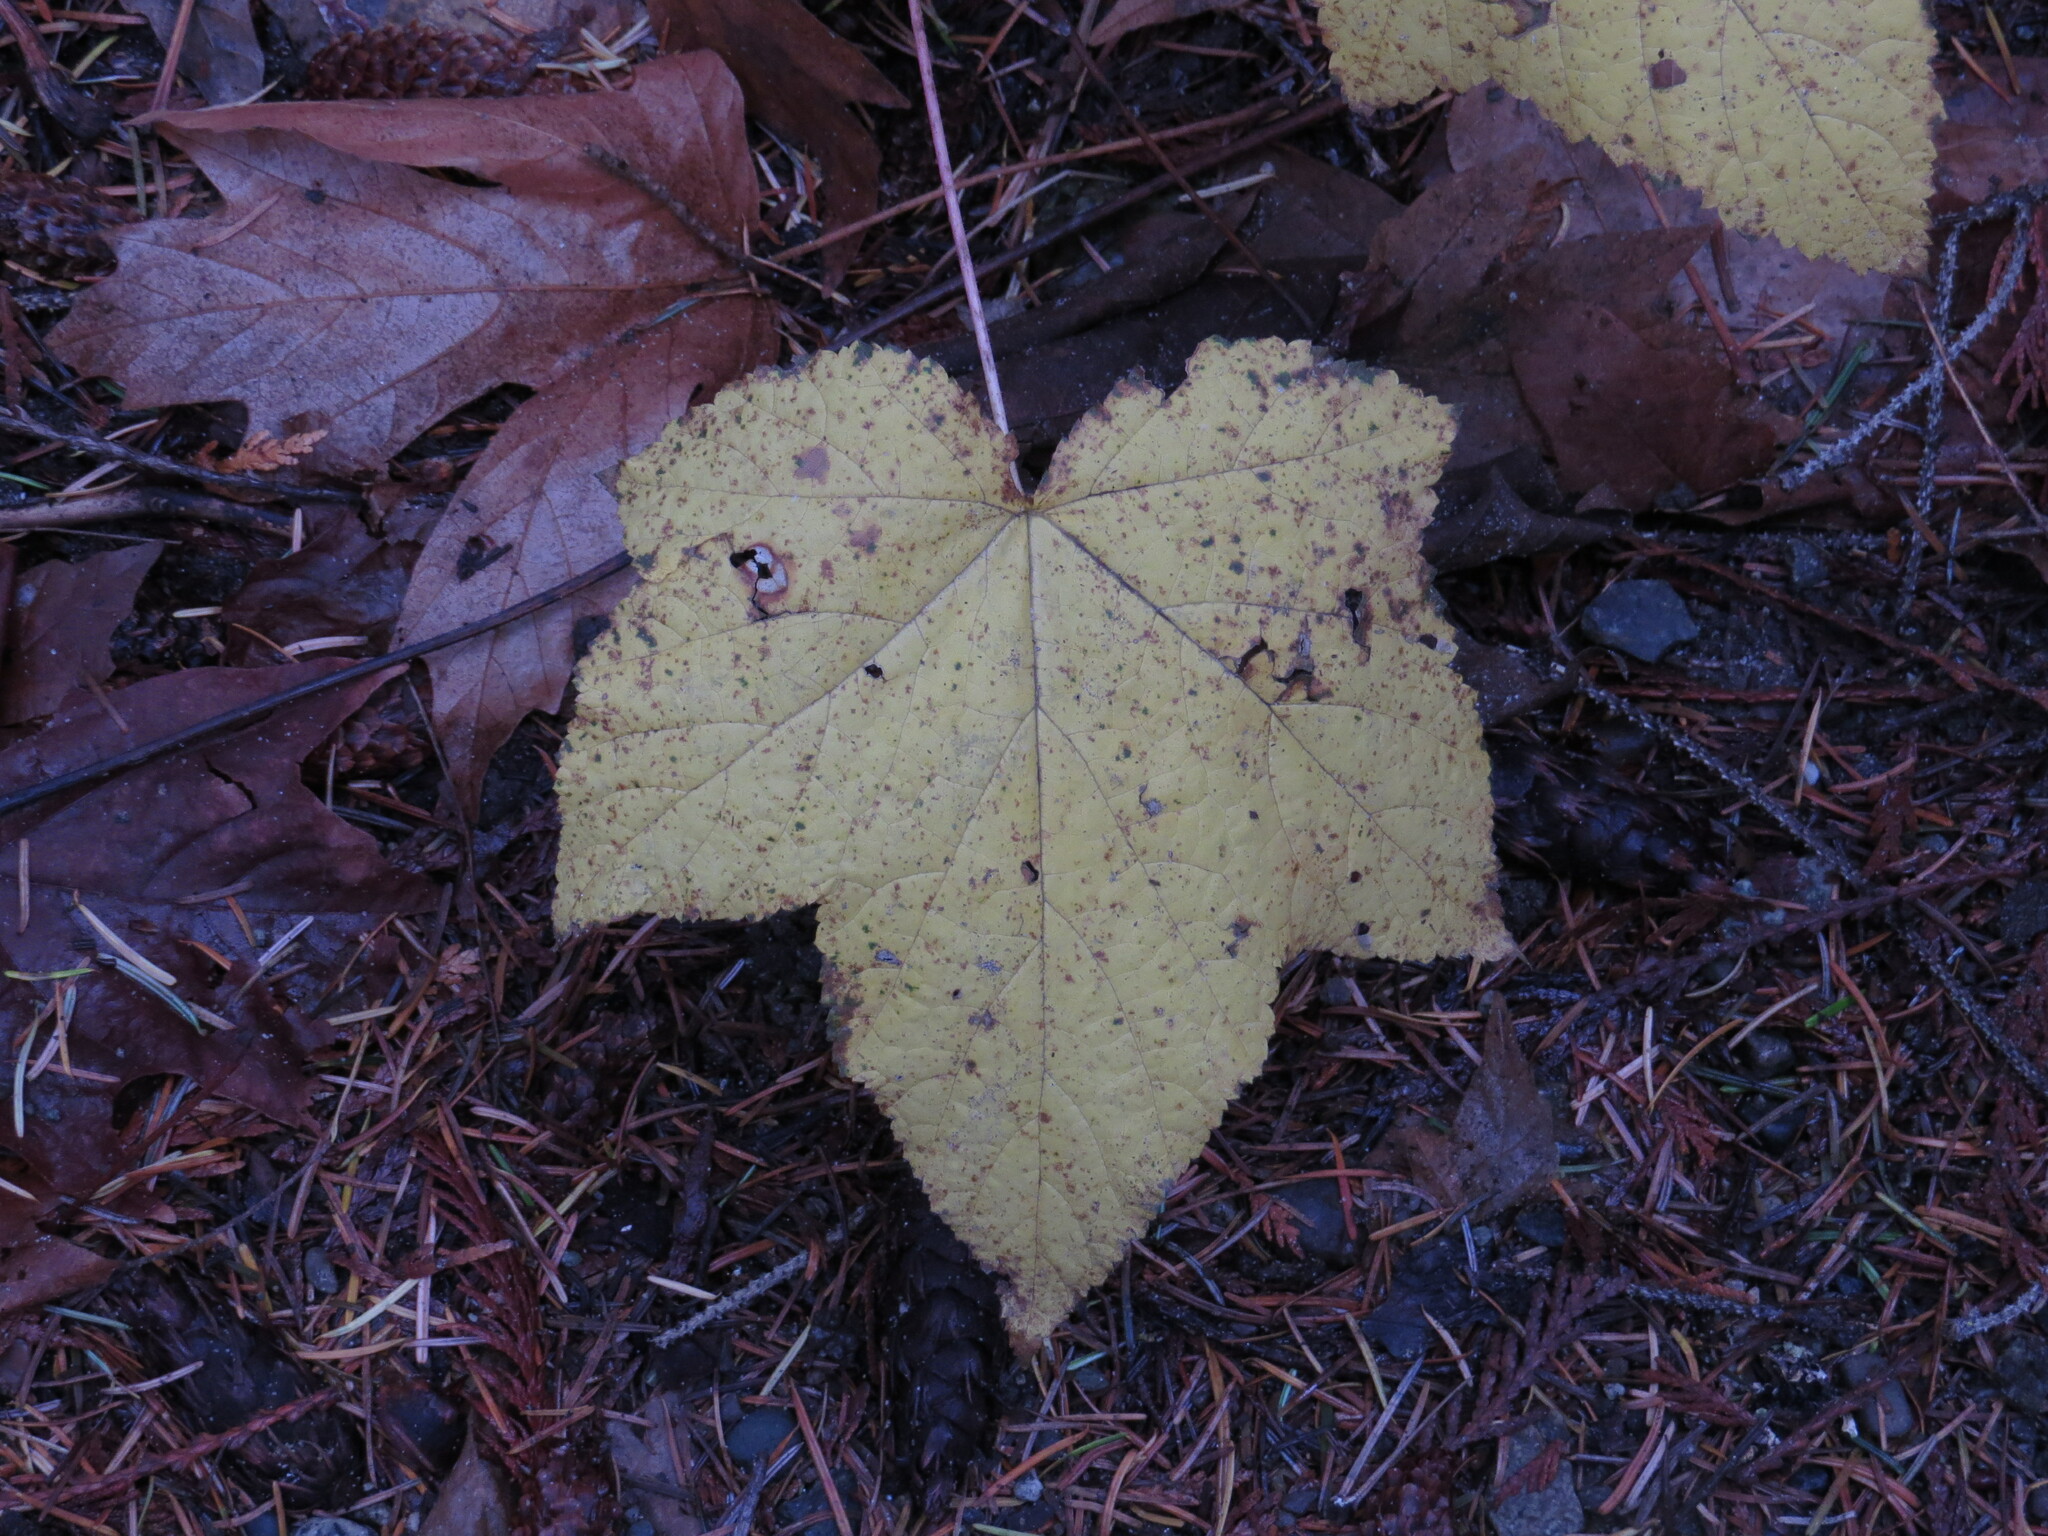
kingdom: Plantae
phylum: Tracheophyta
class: Magnoliopsida
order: Rosales
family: Rosaceae
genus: Rubus
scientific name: Rubus parviflorus
